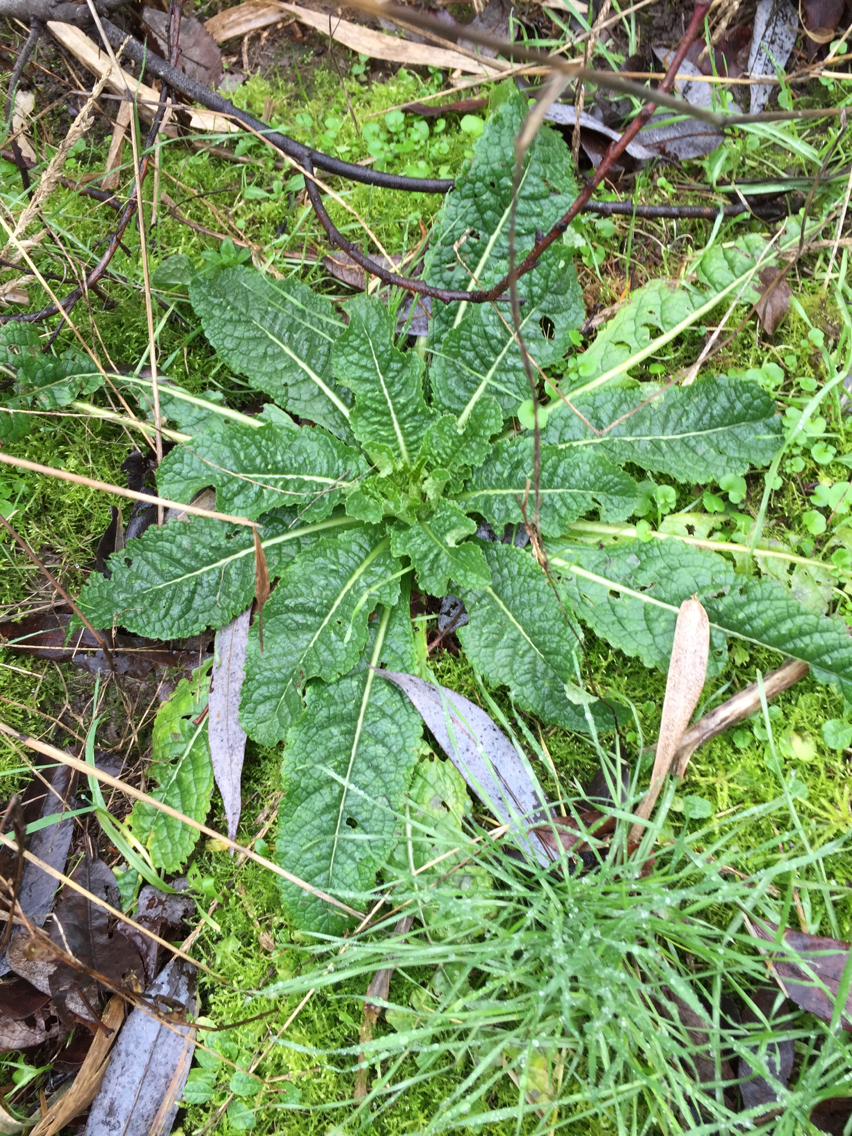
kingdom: Plantae
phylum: Tracheophyta
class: Magnoliopsida
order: Dipsacales
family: Caprifoliaceae
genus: Dipsacus
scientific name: Dipsacus fullonum
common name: Teasel
